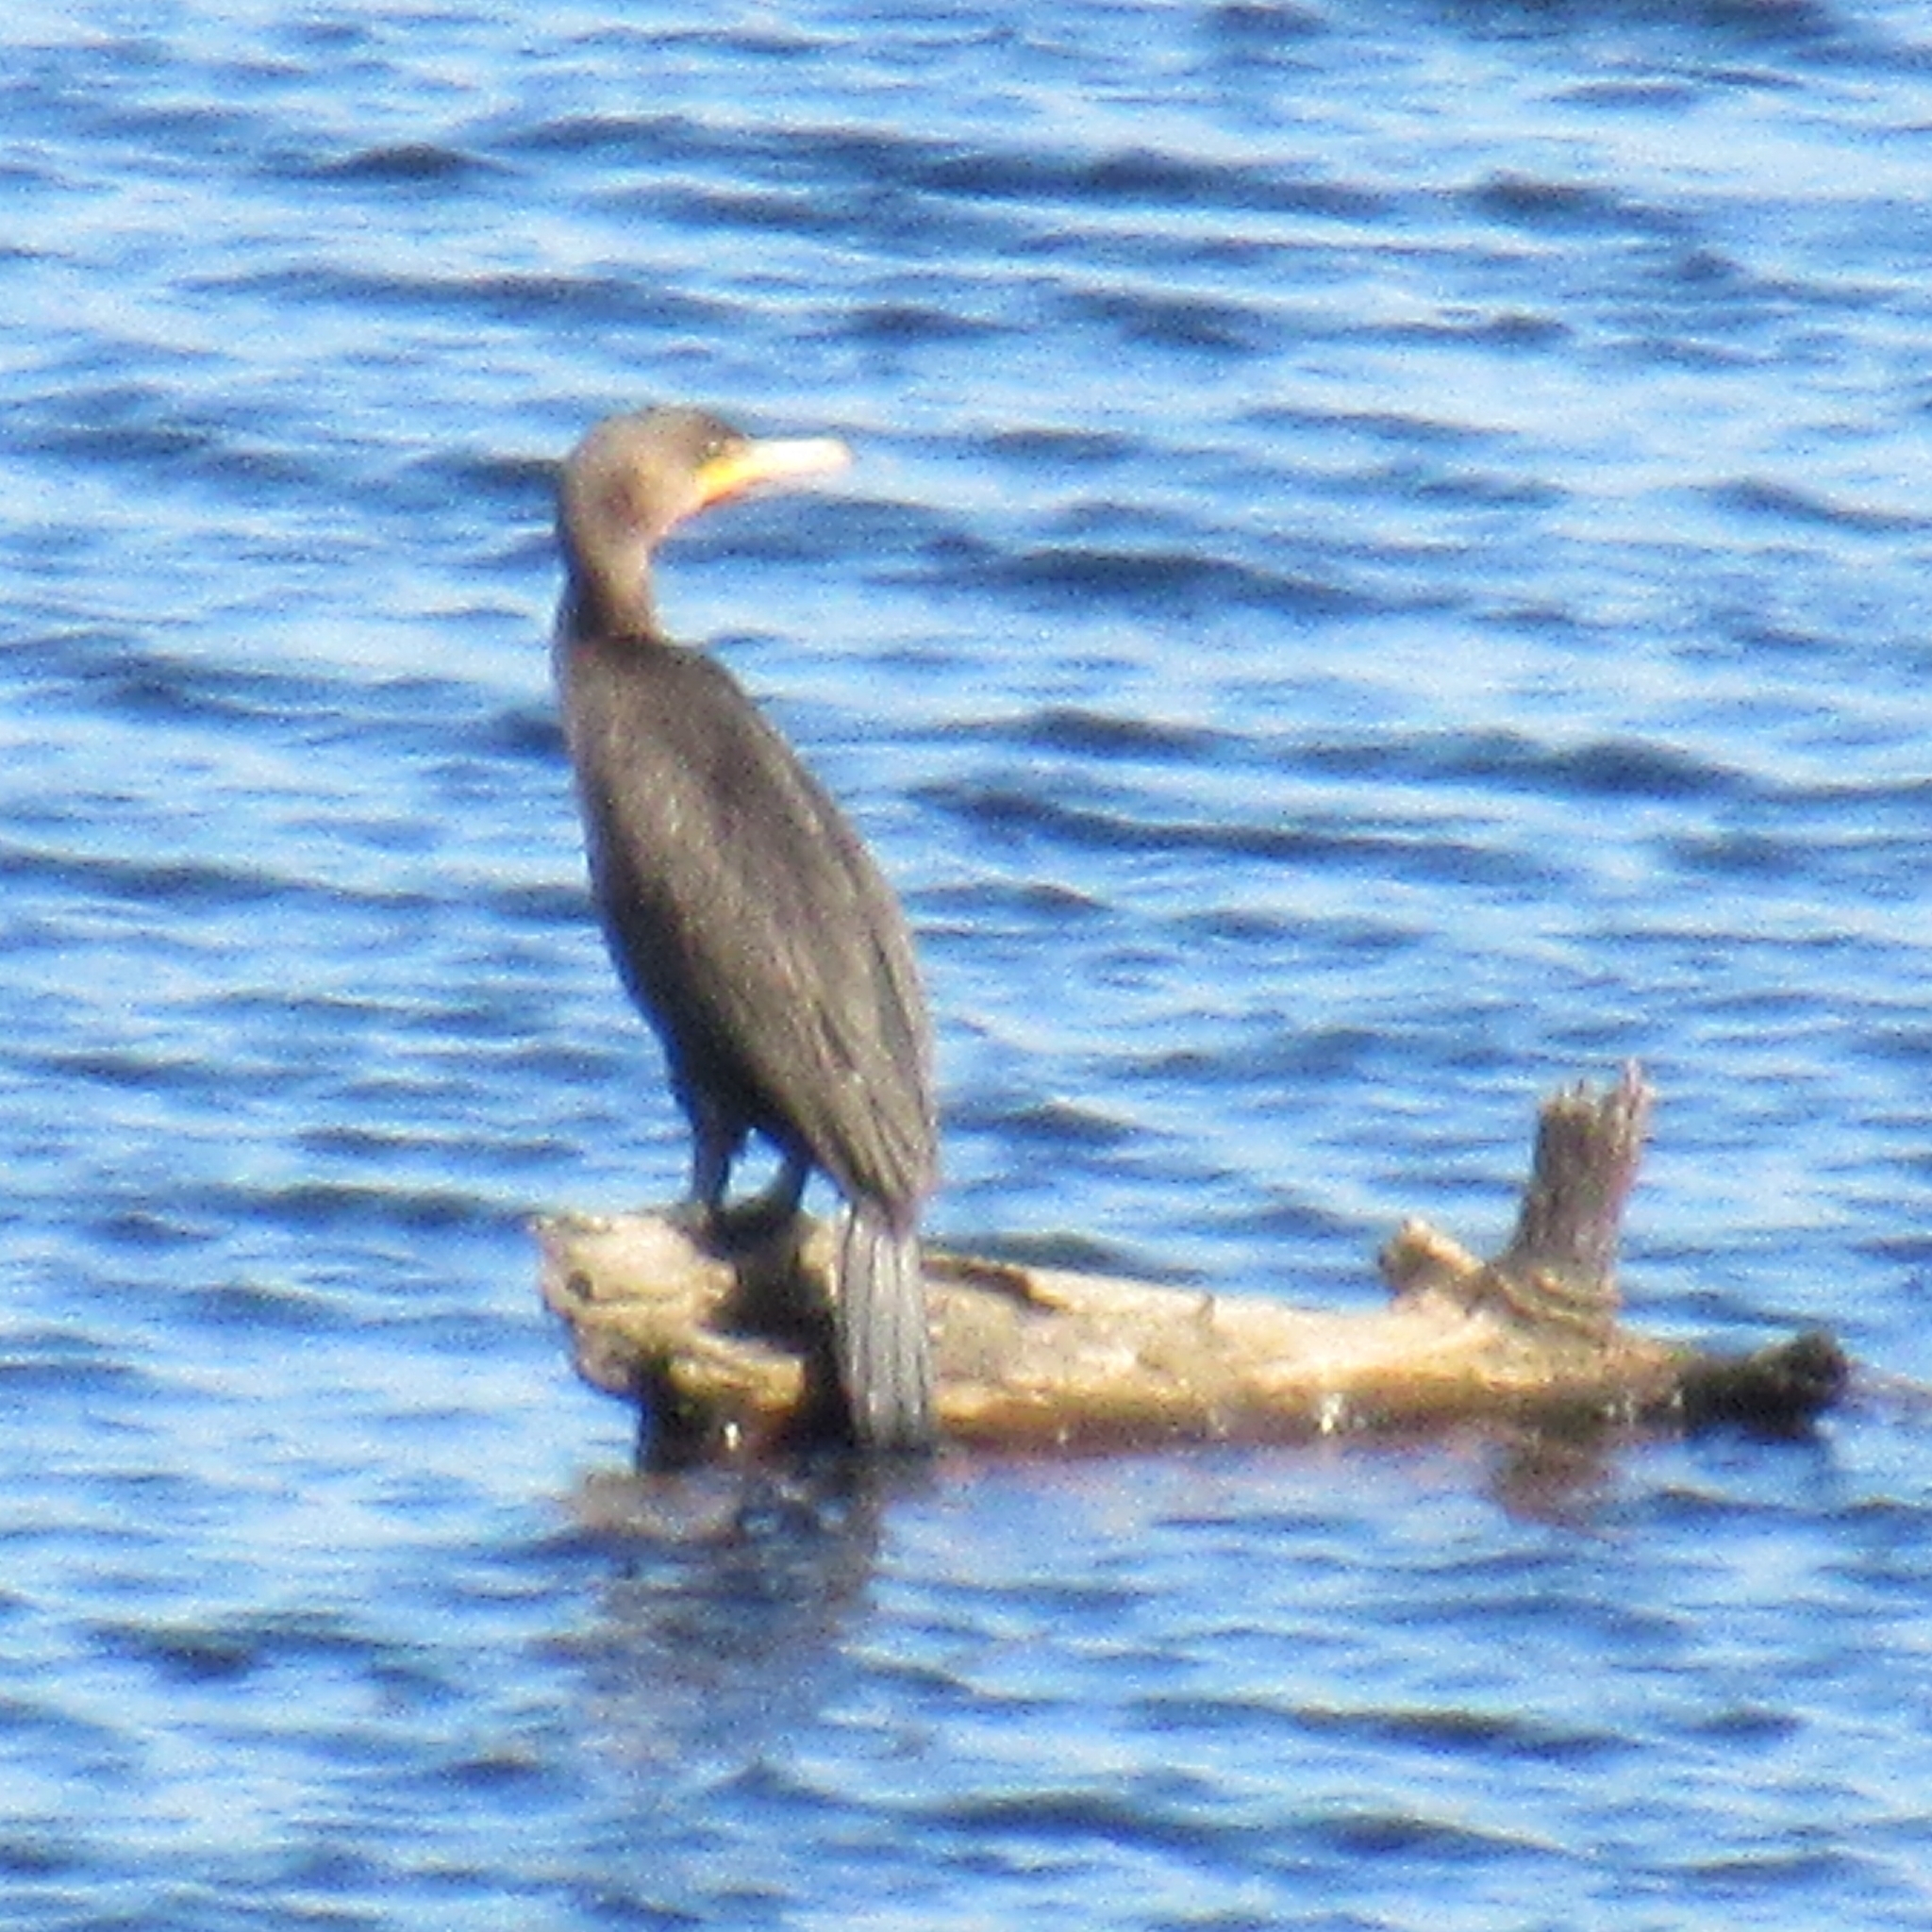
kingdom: Animalia
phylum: Chordata
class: Aves
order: Suliformes
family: Phalacrocoracidae
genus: Phalacrocorax
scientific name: Phalacrocorax auritus
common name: Double-crested cormorant
